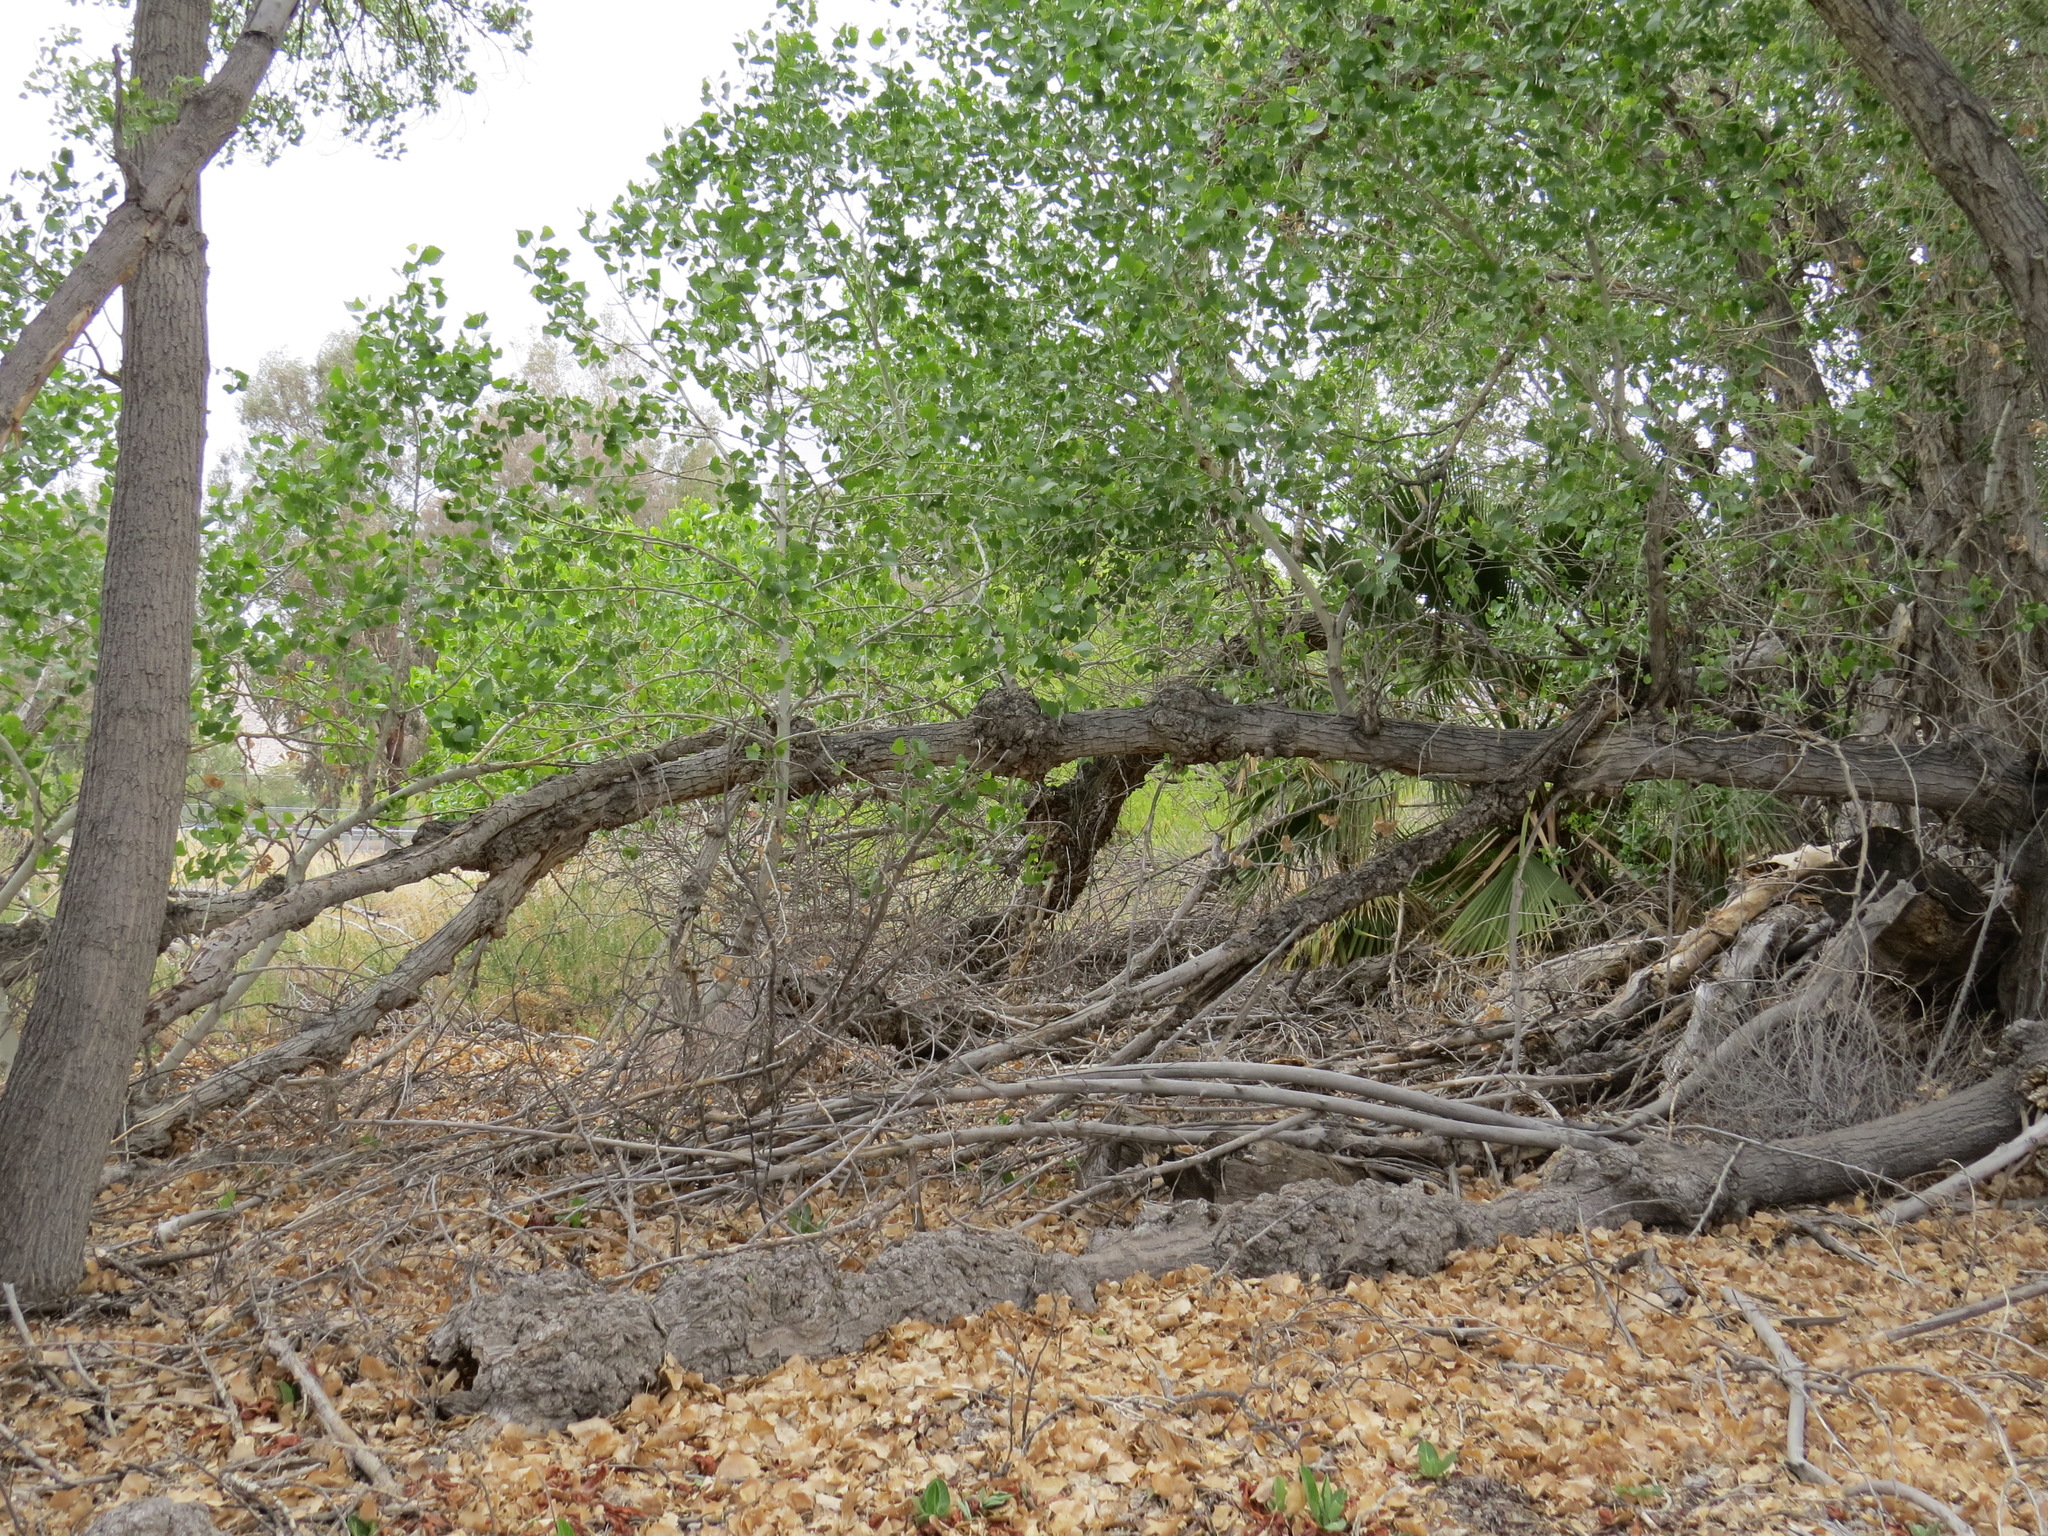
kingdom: Plantae
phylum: Tracheophyta
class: Magnoliopsida
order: Malpighiales
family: Salicaceae
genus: Populus
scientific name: Populus fremontii
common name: Fremont's cottonwood
